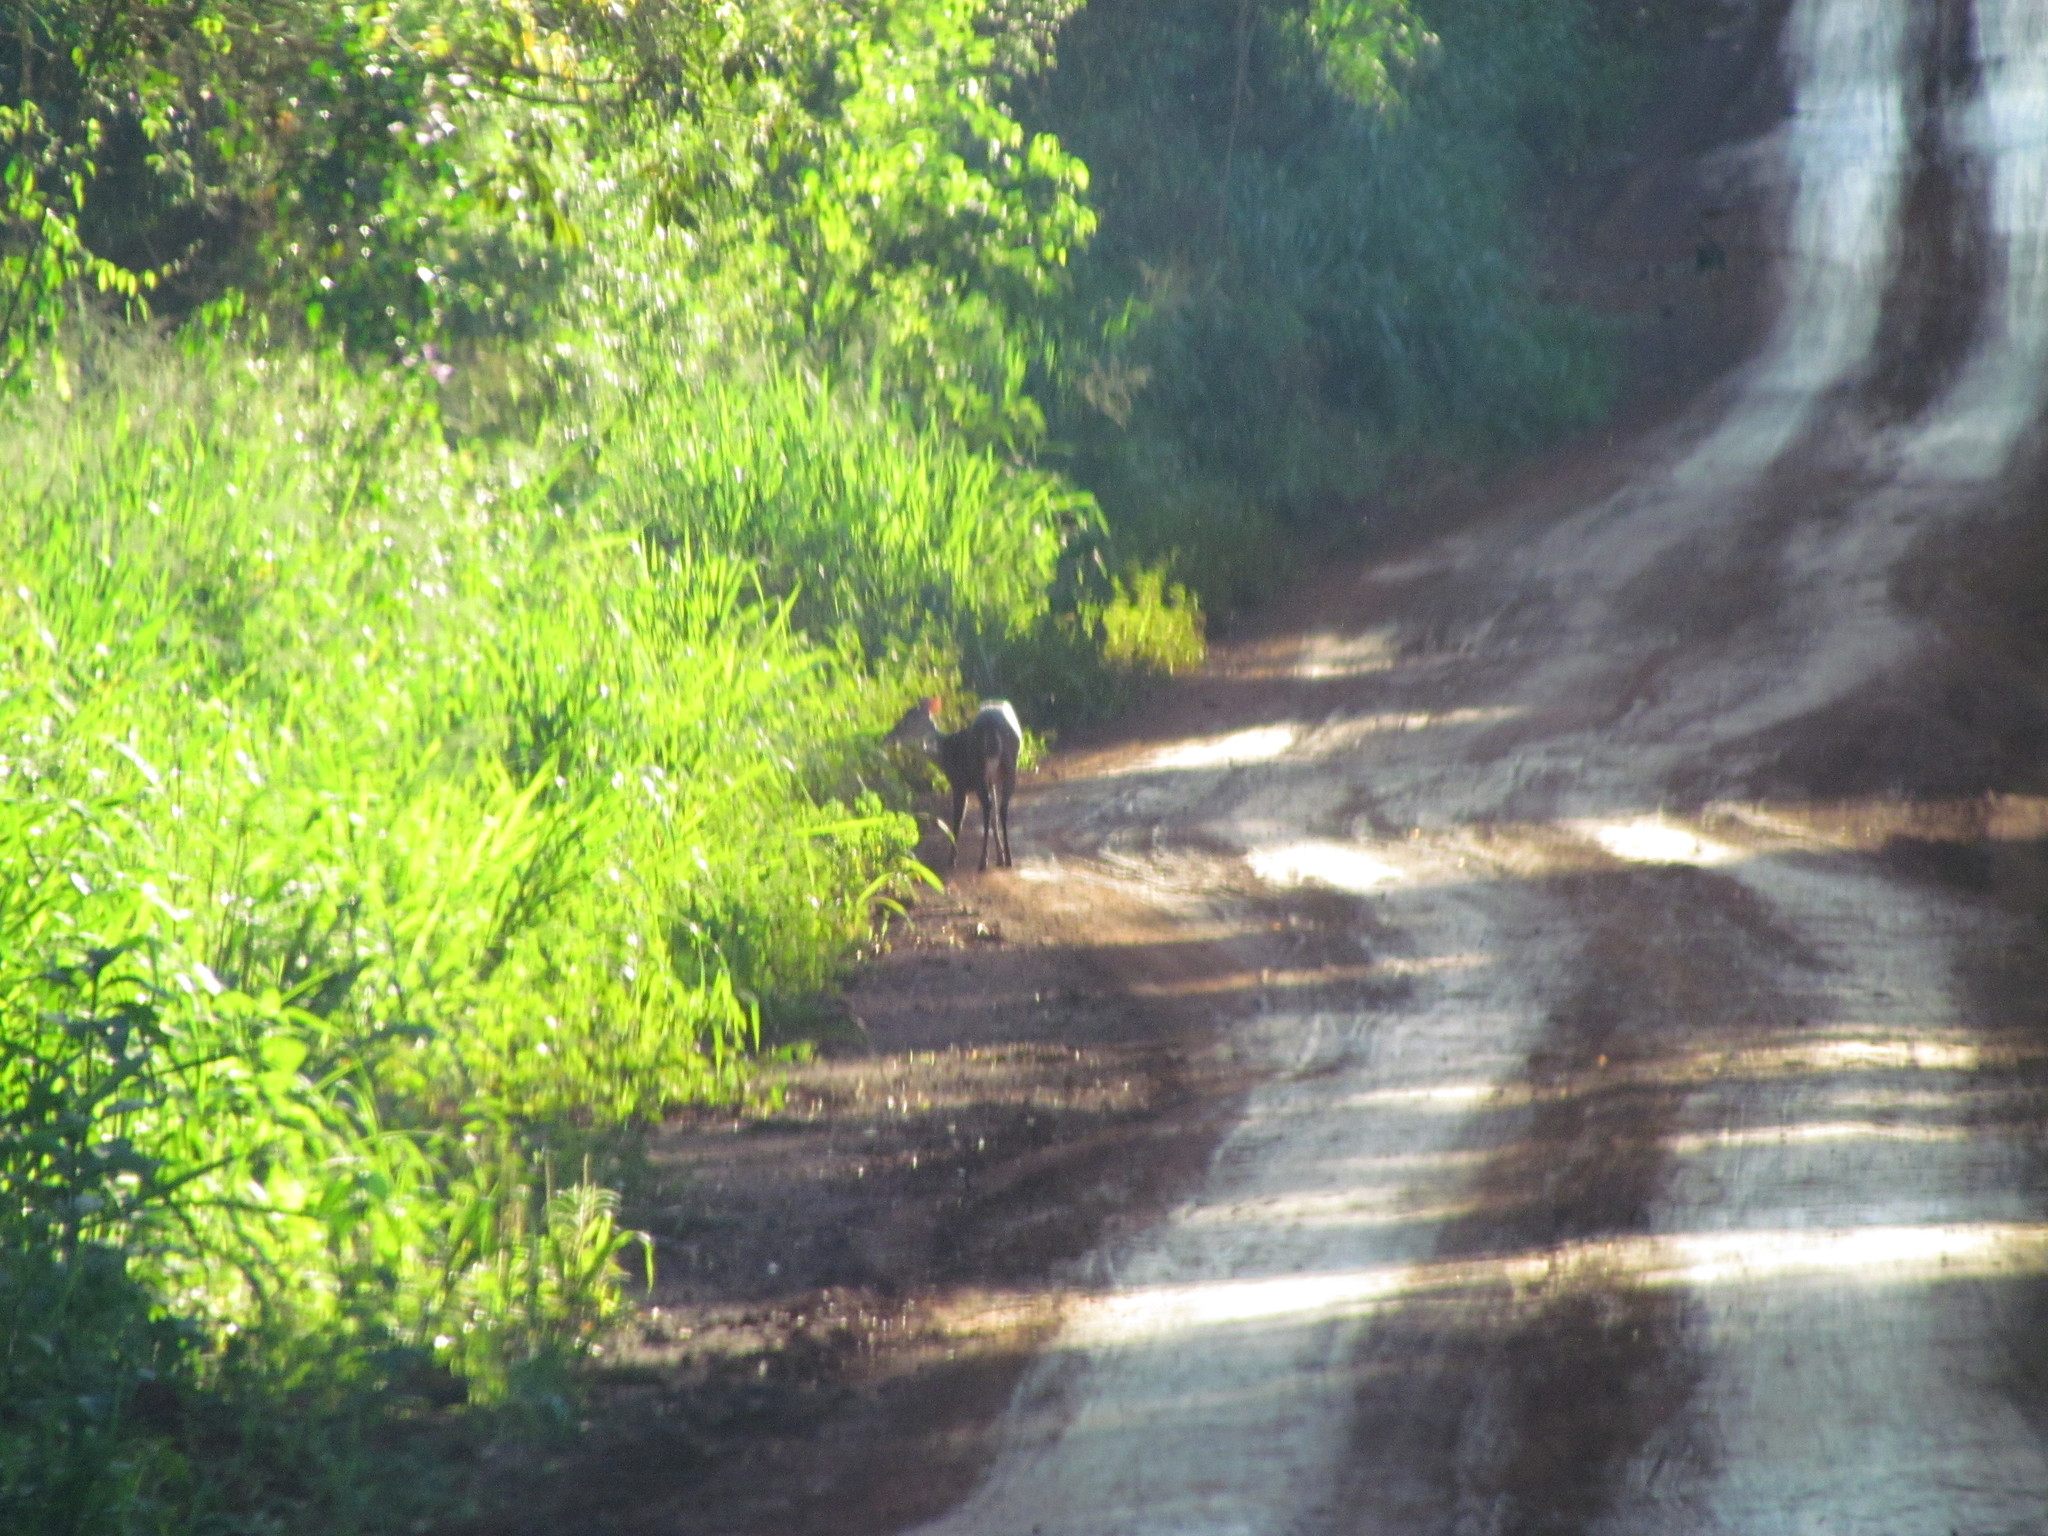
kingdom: Animalia
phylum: Chordata
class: Mammalia
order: Artiodactyla
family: Cervidae
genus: Mazama
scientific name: Mazama americana
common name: Red brocket
